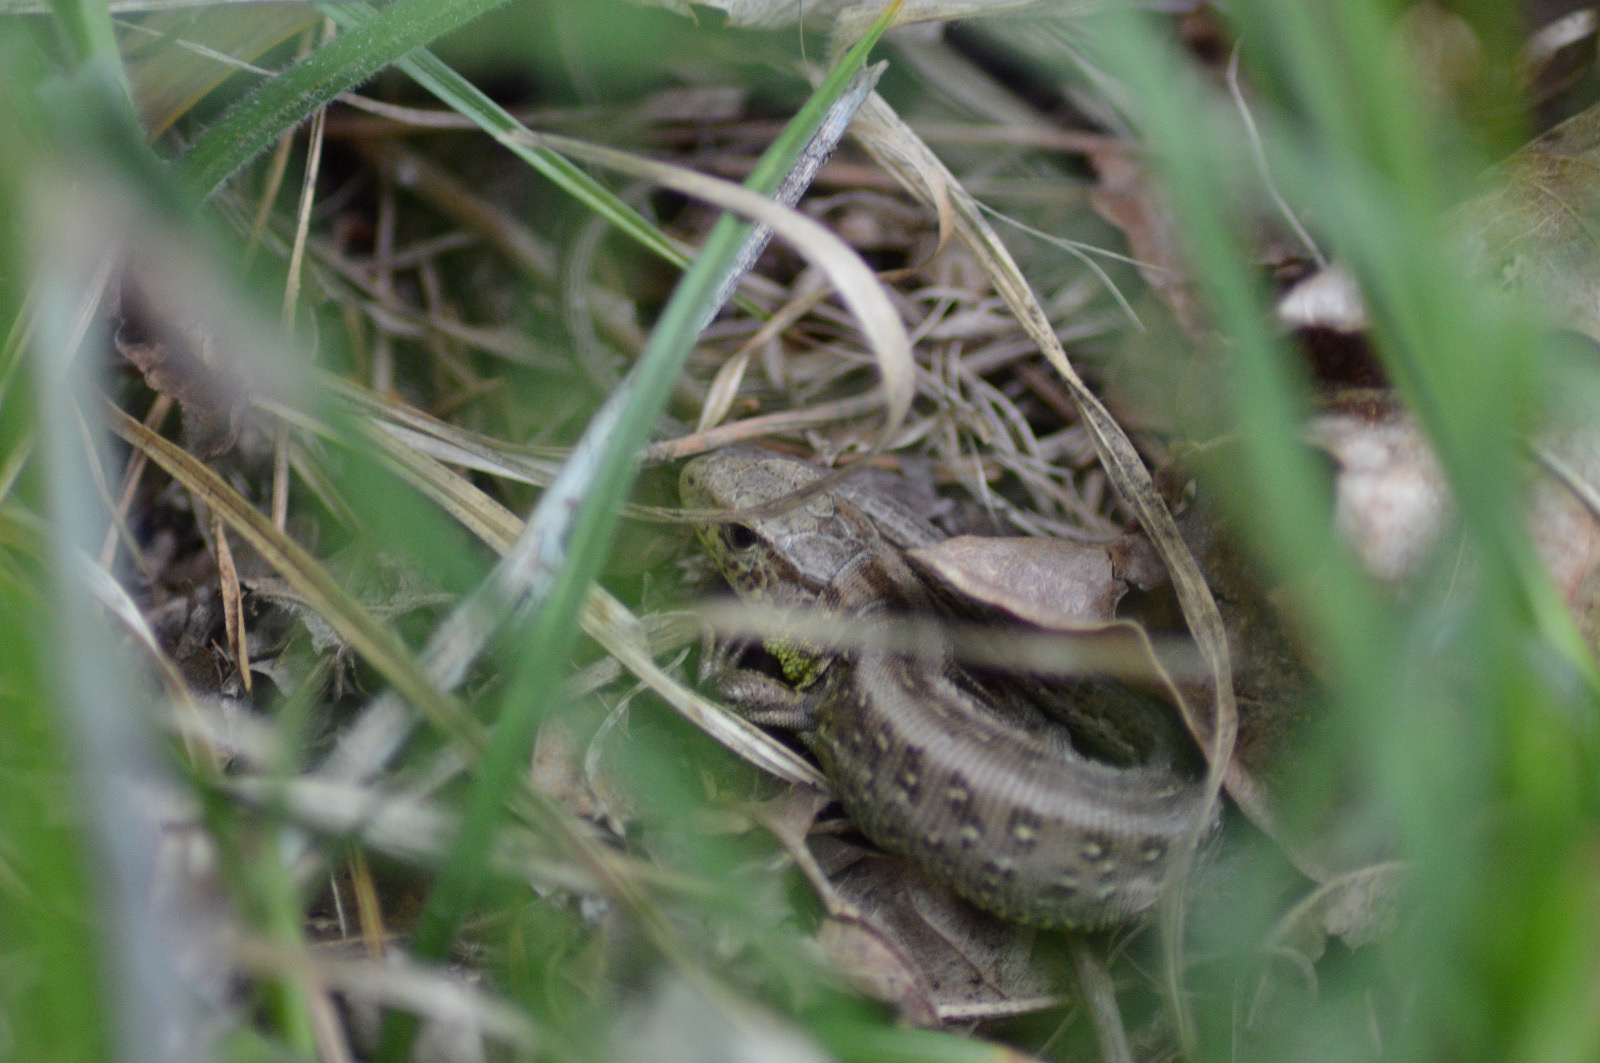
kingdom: Animalia
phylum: Chordata
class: Squamata
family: Lacertidae
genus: Lacerta
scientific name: Lacerta agilis
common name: Sand lizard
